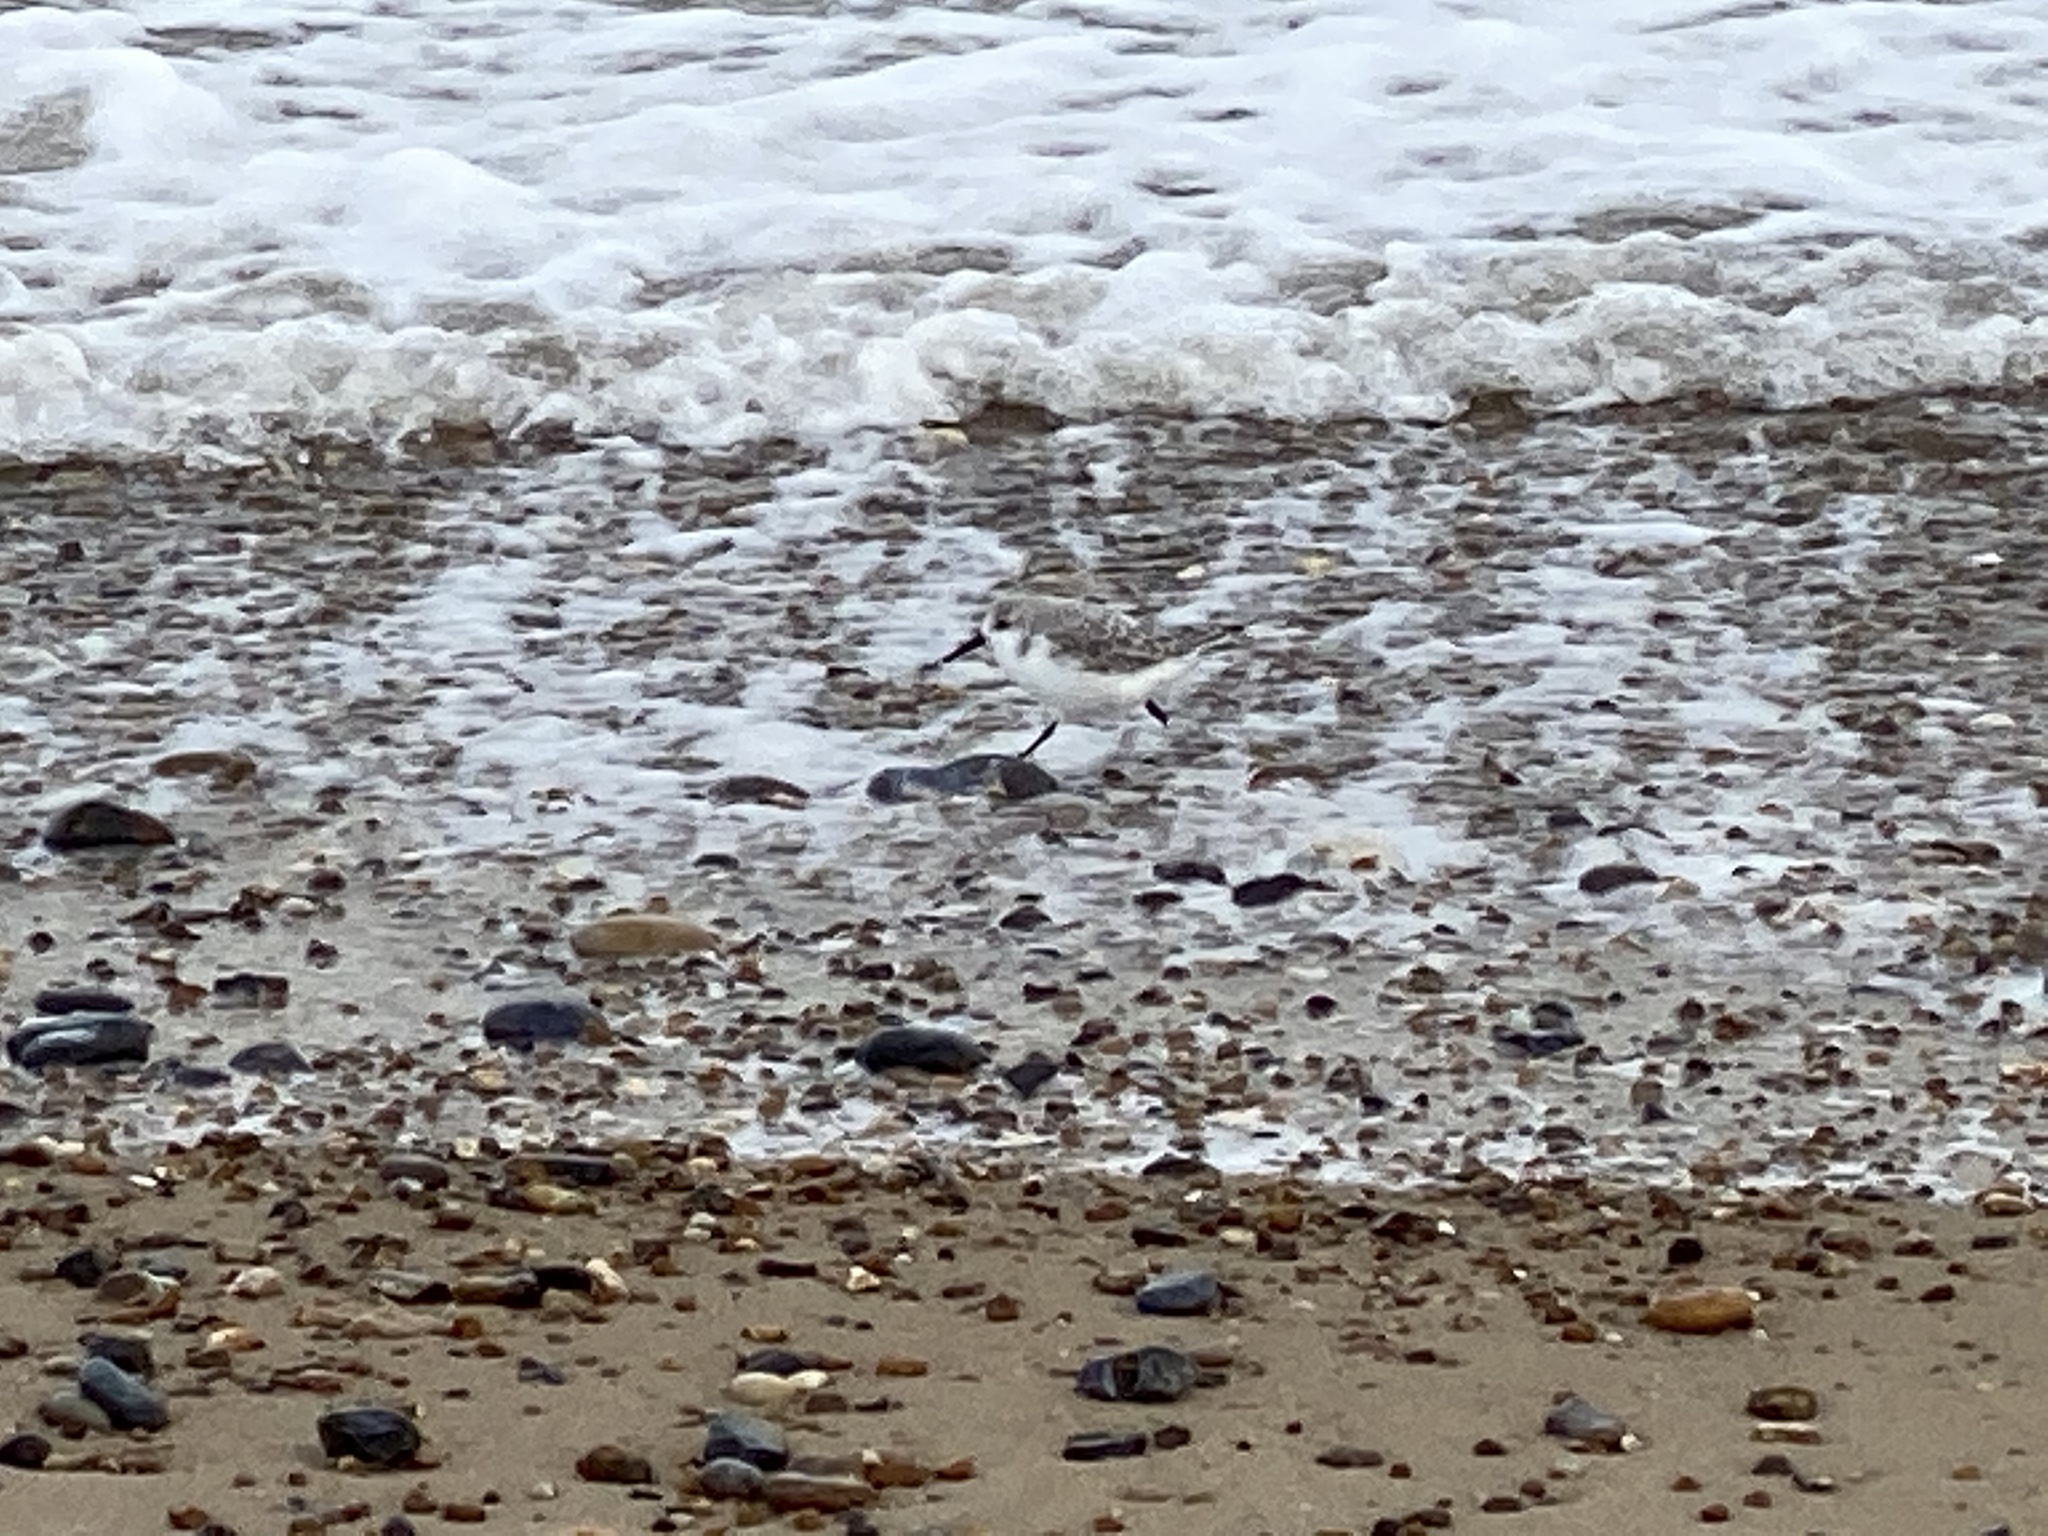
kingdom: Animalia
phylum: Chordata
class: Aves
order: Charadriiformes
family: Scolopacidae
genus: Calidris
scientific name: Calidris alba
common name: Sanderling
